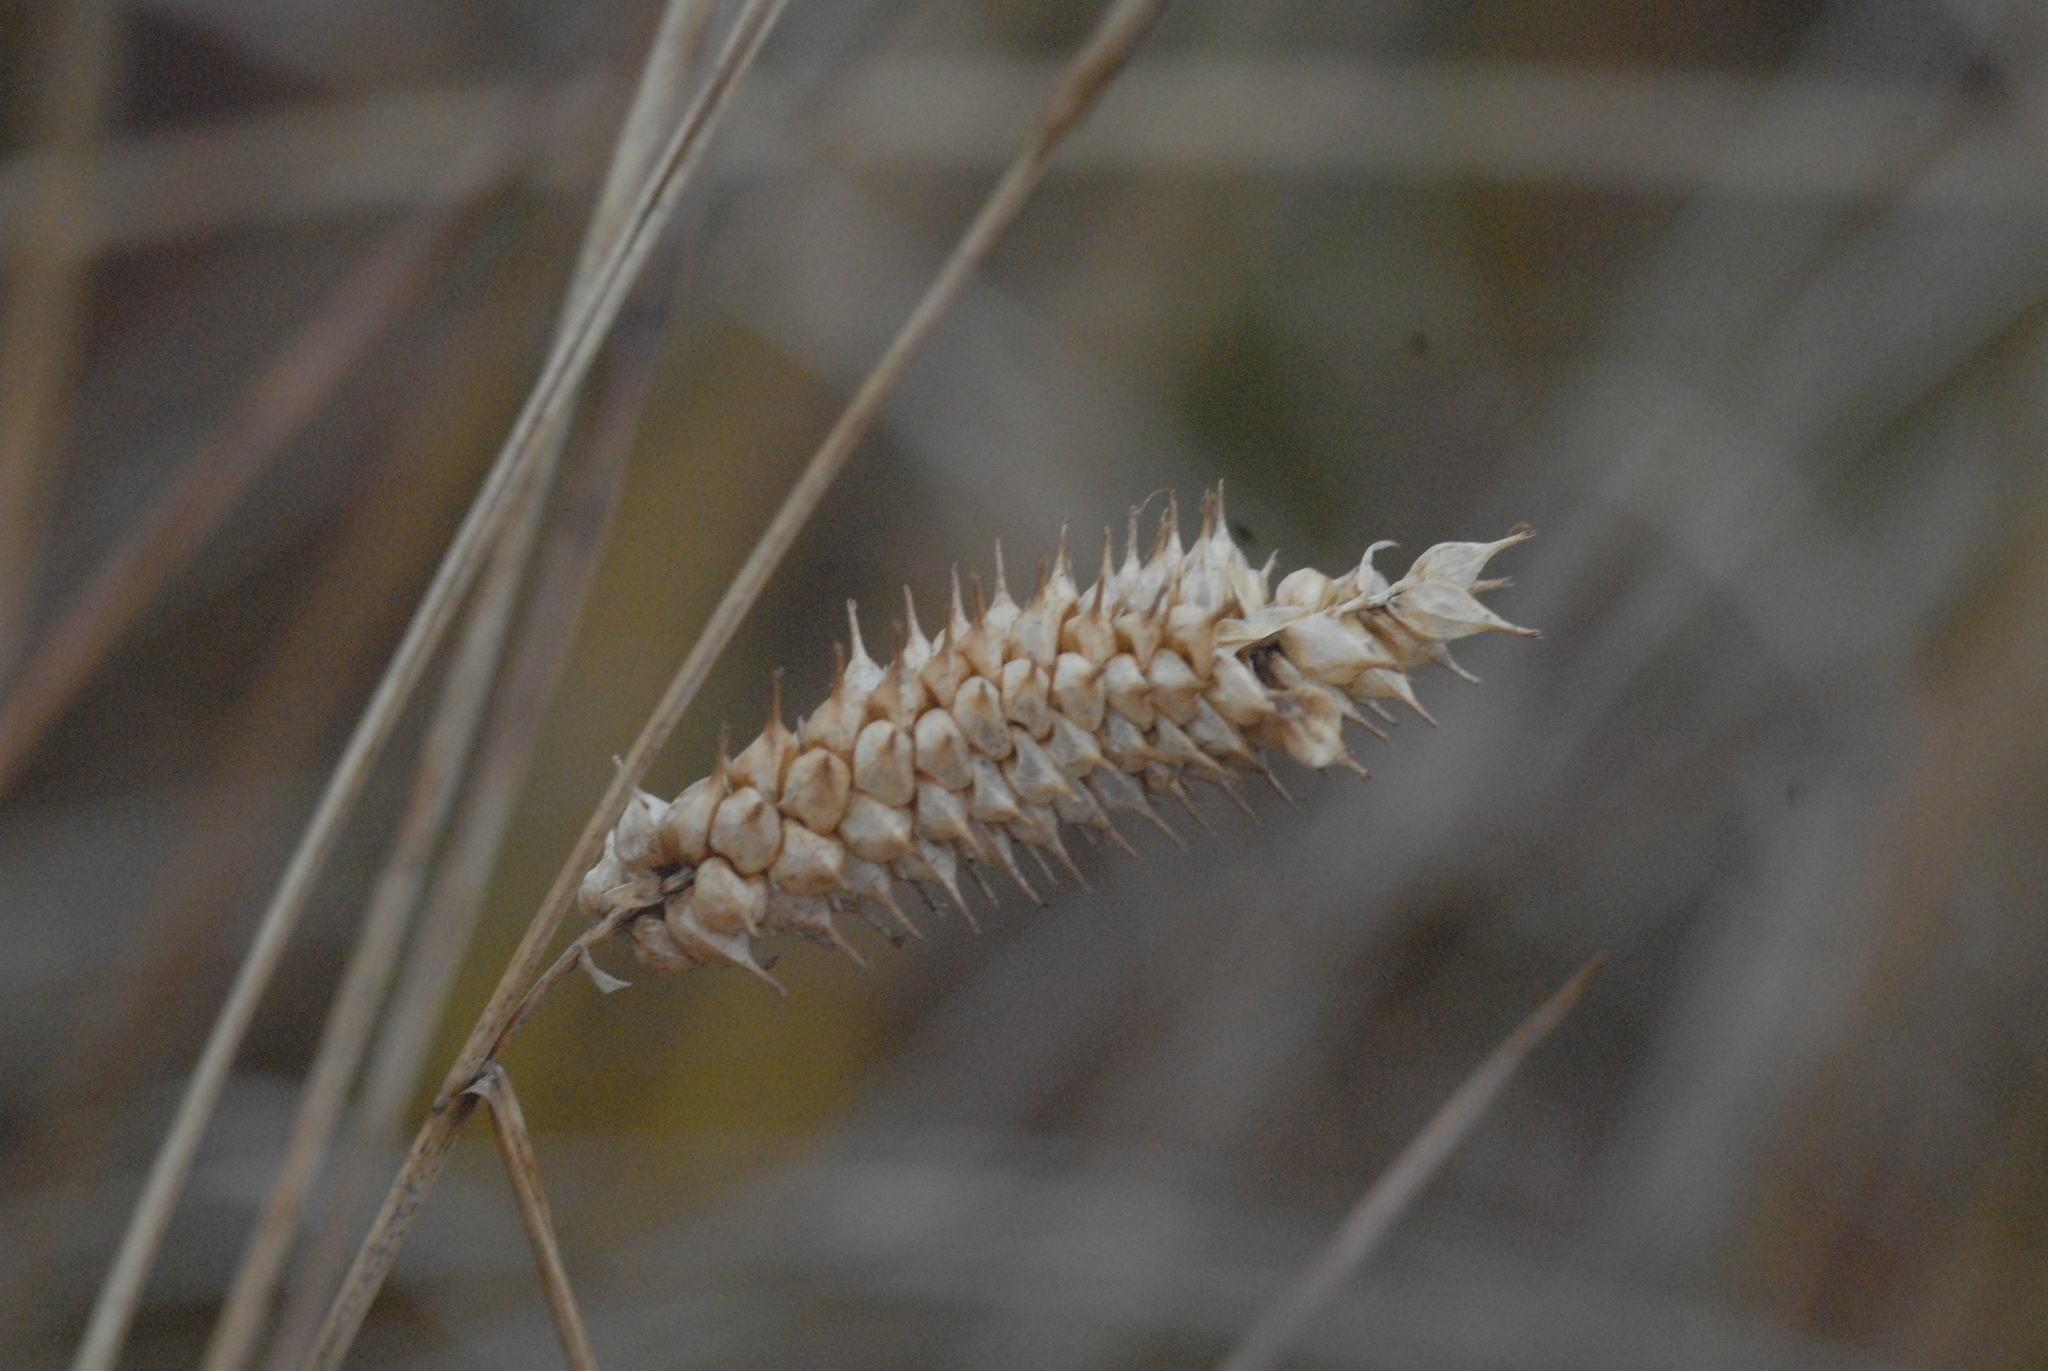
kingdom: Plantae
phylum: Tracheophyta
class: Liliopsida
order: Poales
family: Cyperaceae
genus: Carex
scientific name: Carex vesicaria
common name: Bladder-sedge
